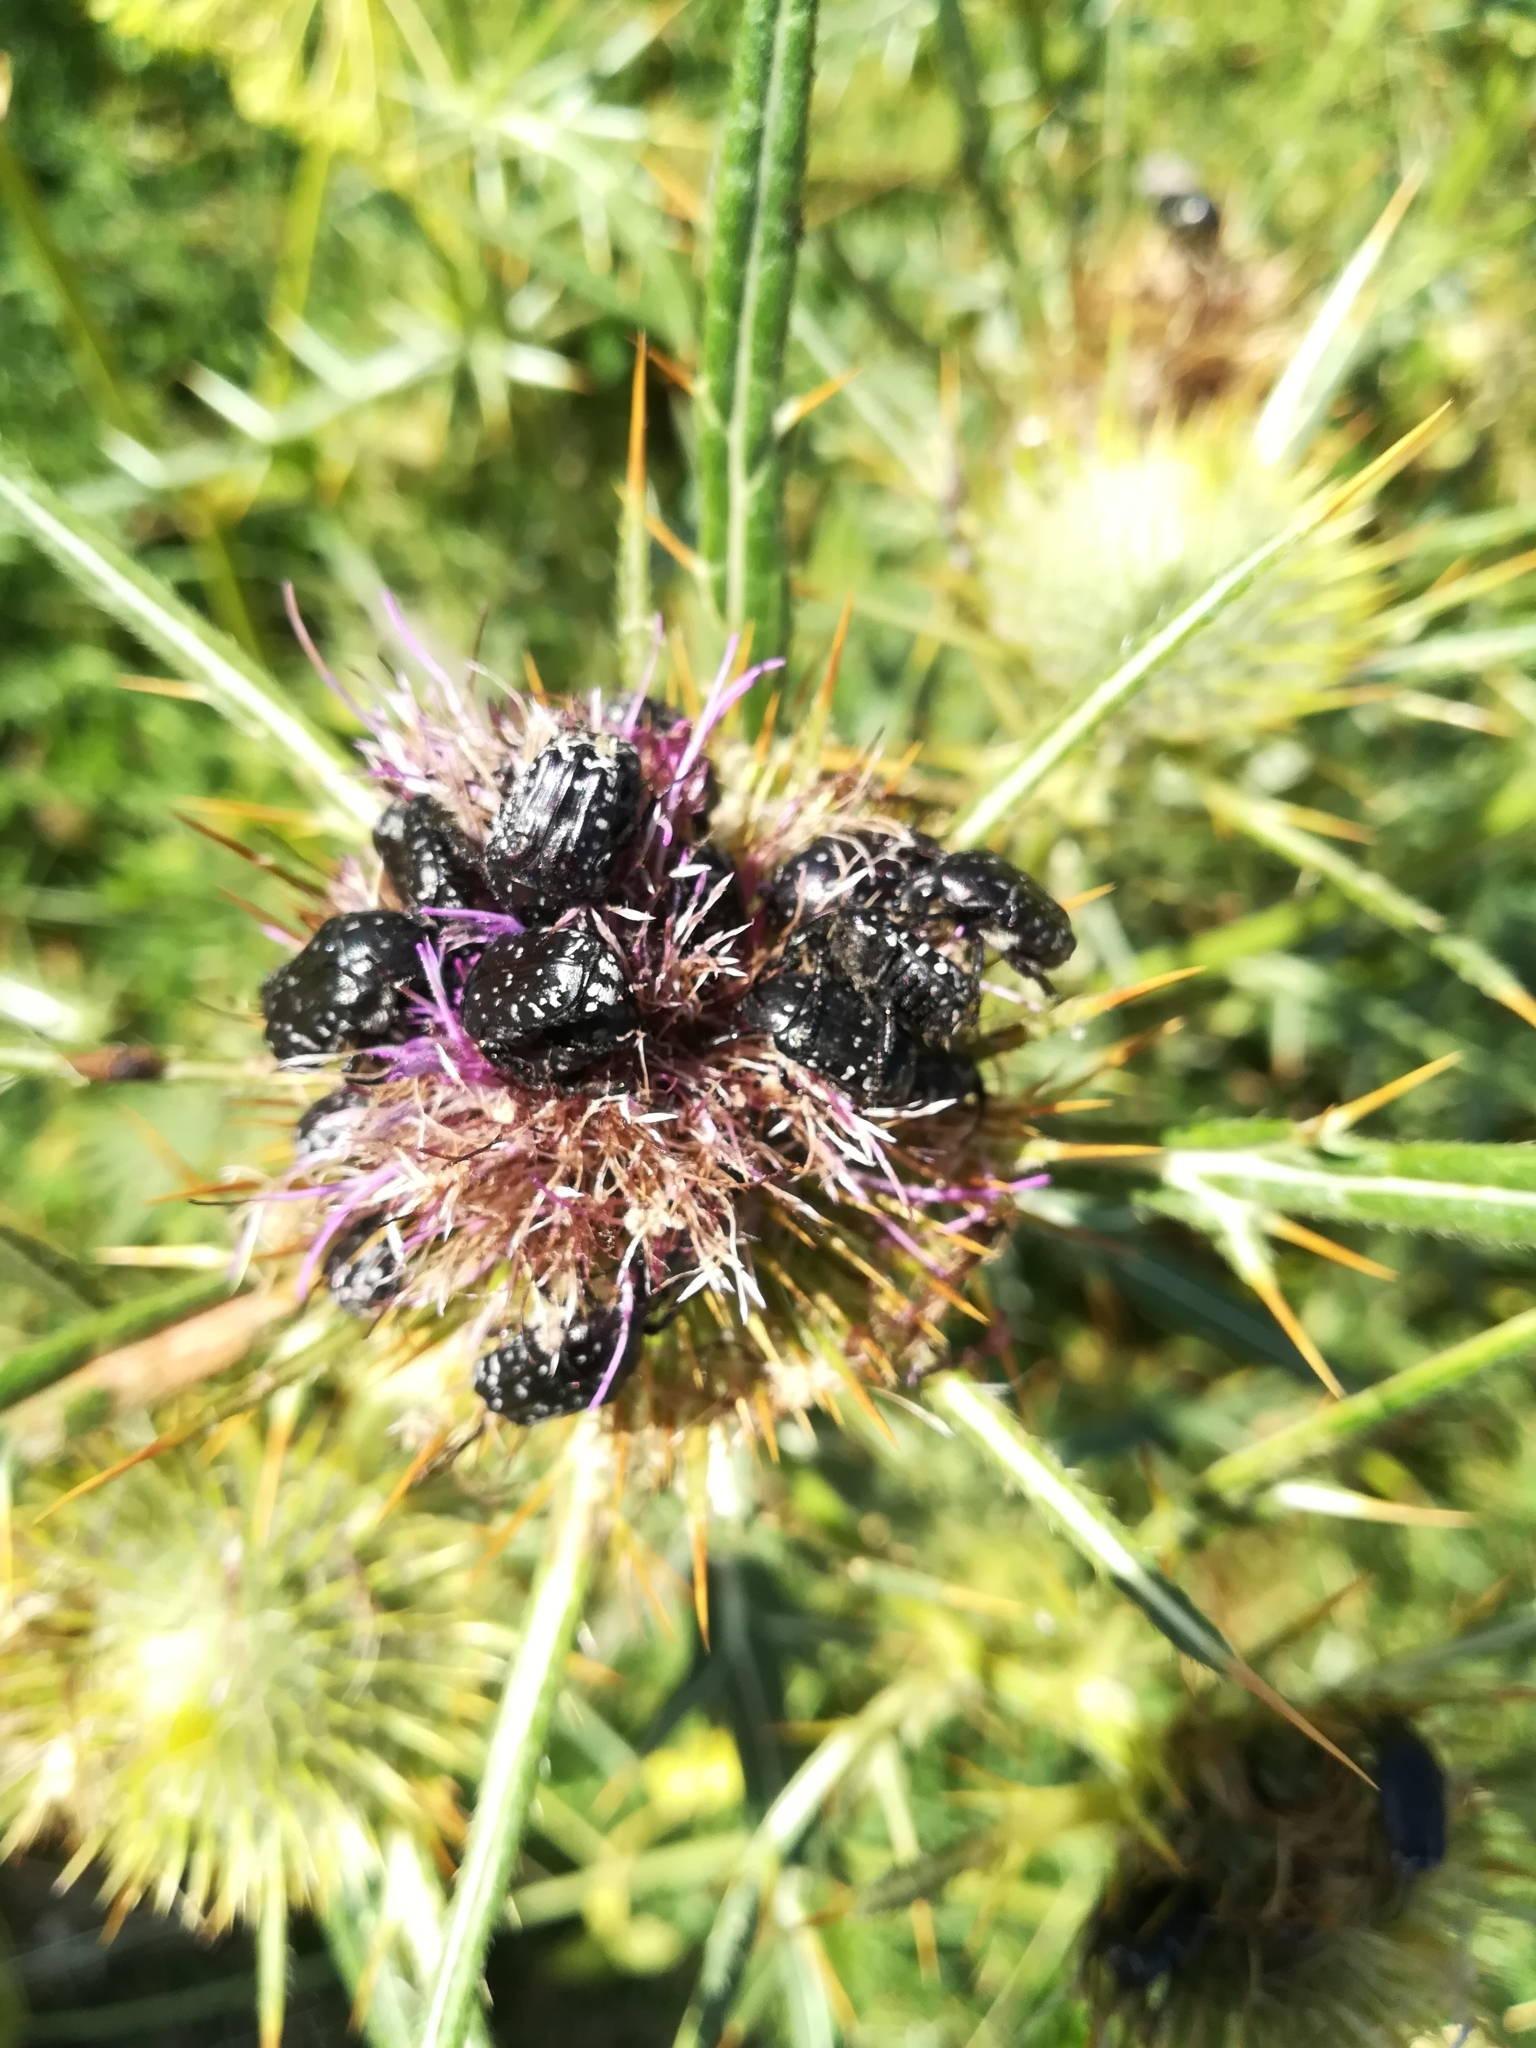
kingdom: Animalia
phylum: Arthropoda
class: Insecta
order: Coleoptera
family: Scarabaeidae
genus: Oxythyrea
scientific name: Oxythyrea funesta
